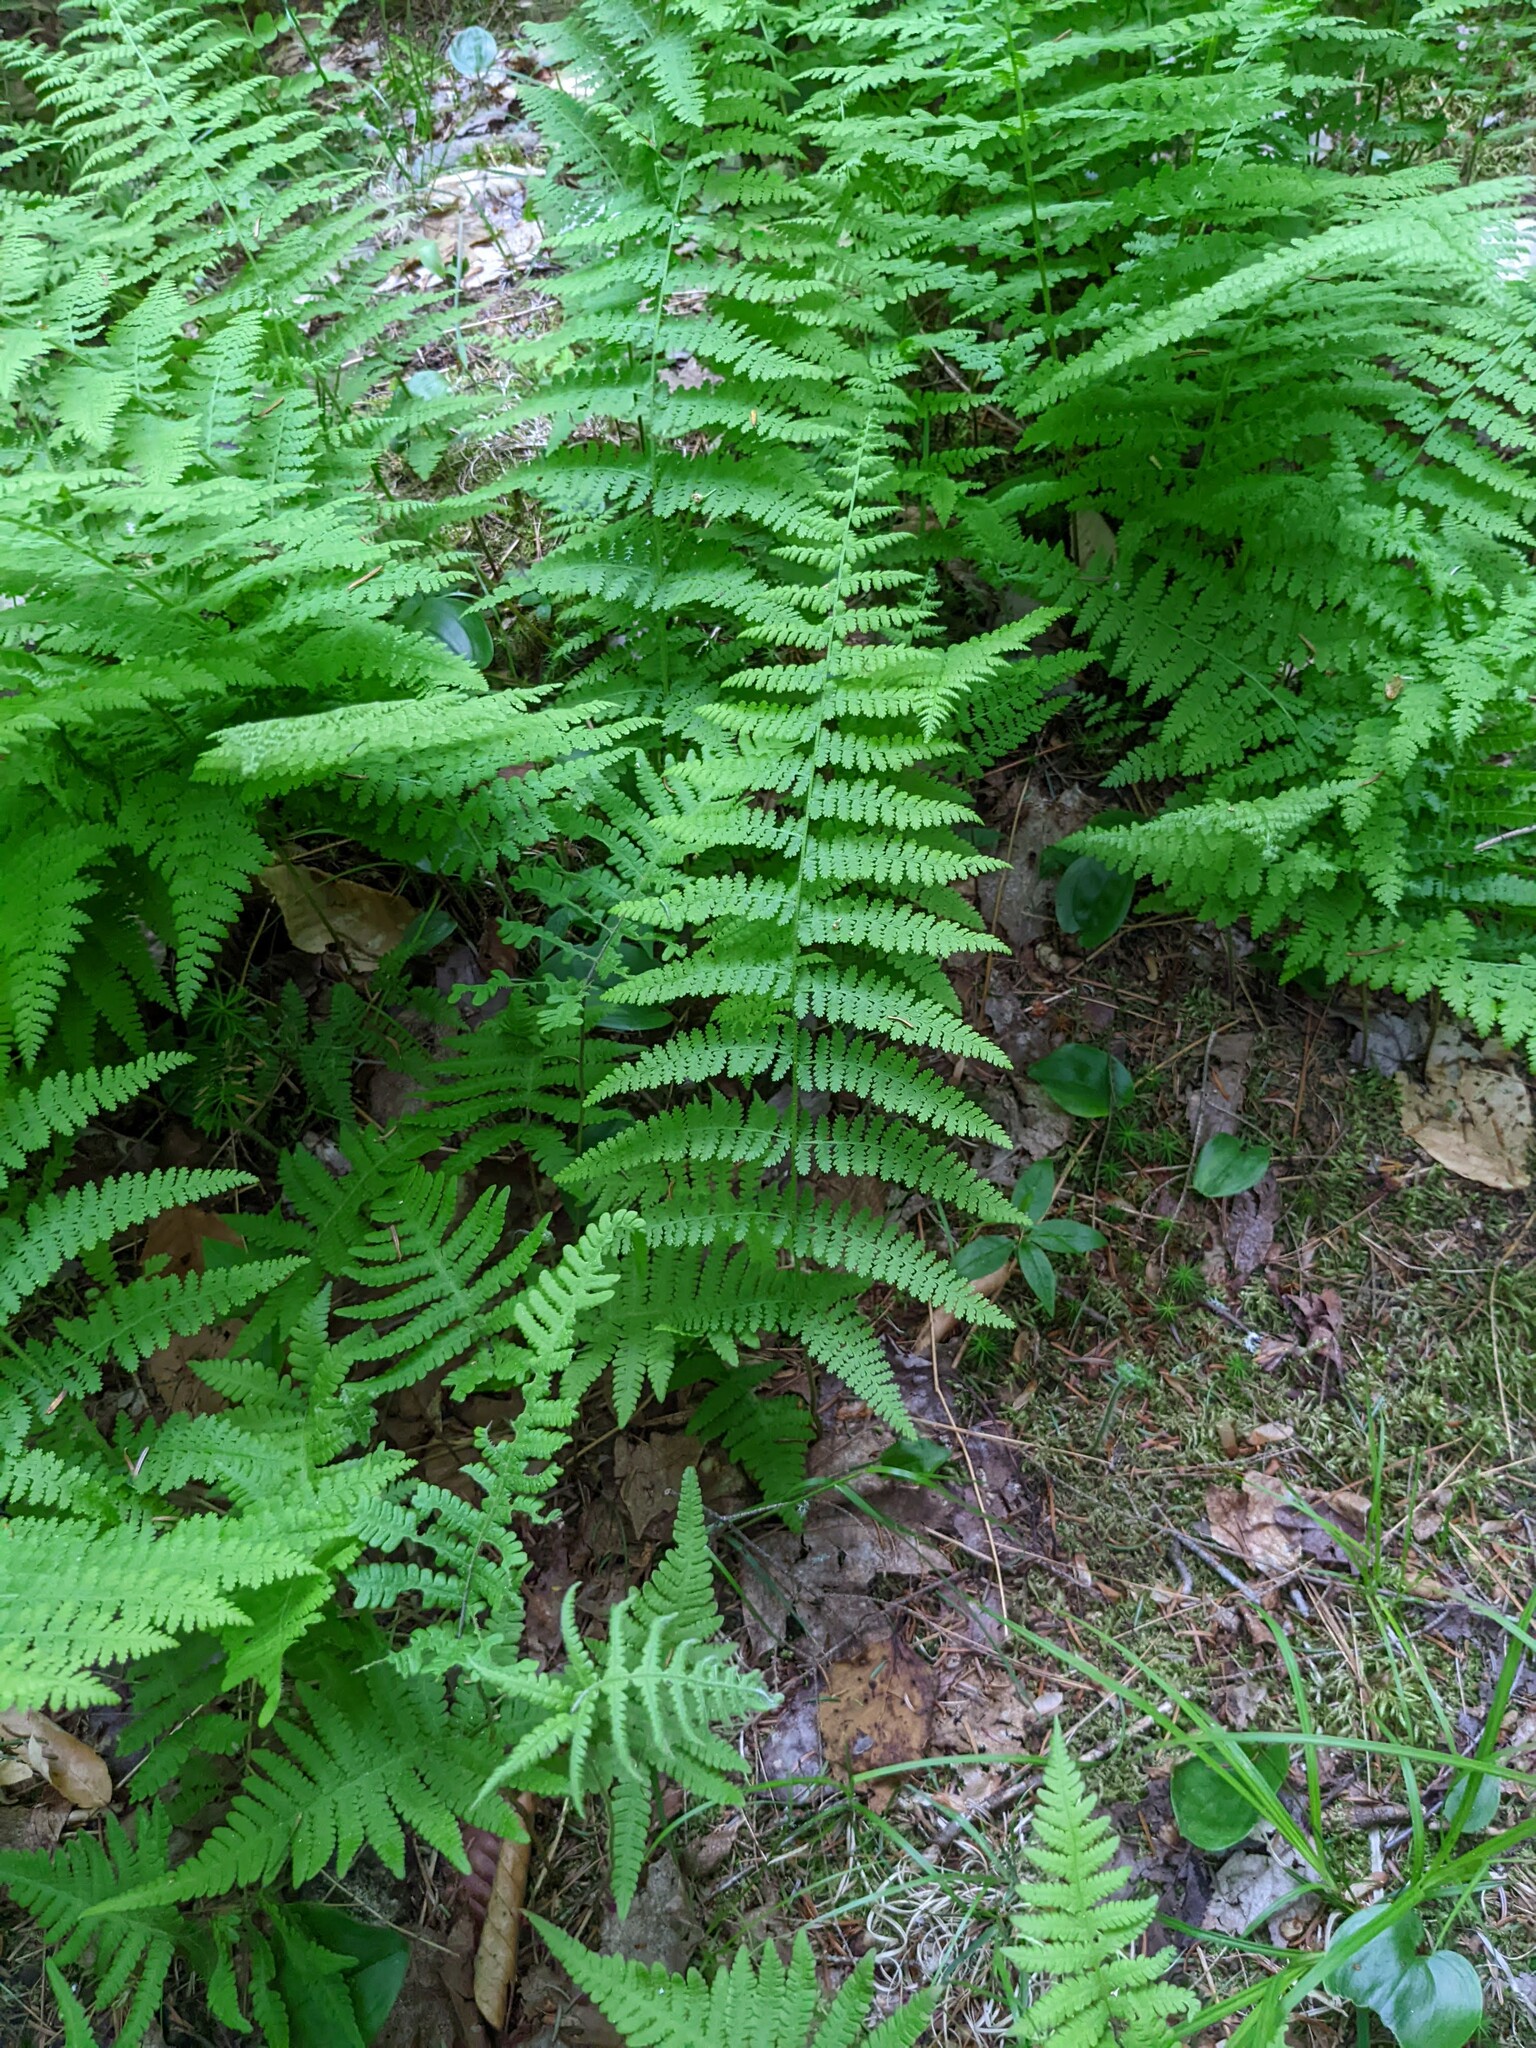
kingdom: Plantae
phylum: Tracheophyta
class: Polypodiopsida
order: Polypodiales
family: Dennstaedtiaceae
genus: Sitobolium
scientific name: Sitobolium punctilobum
